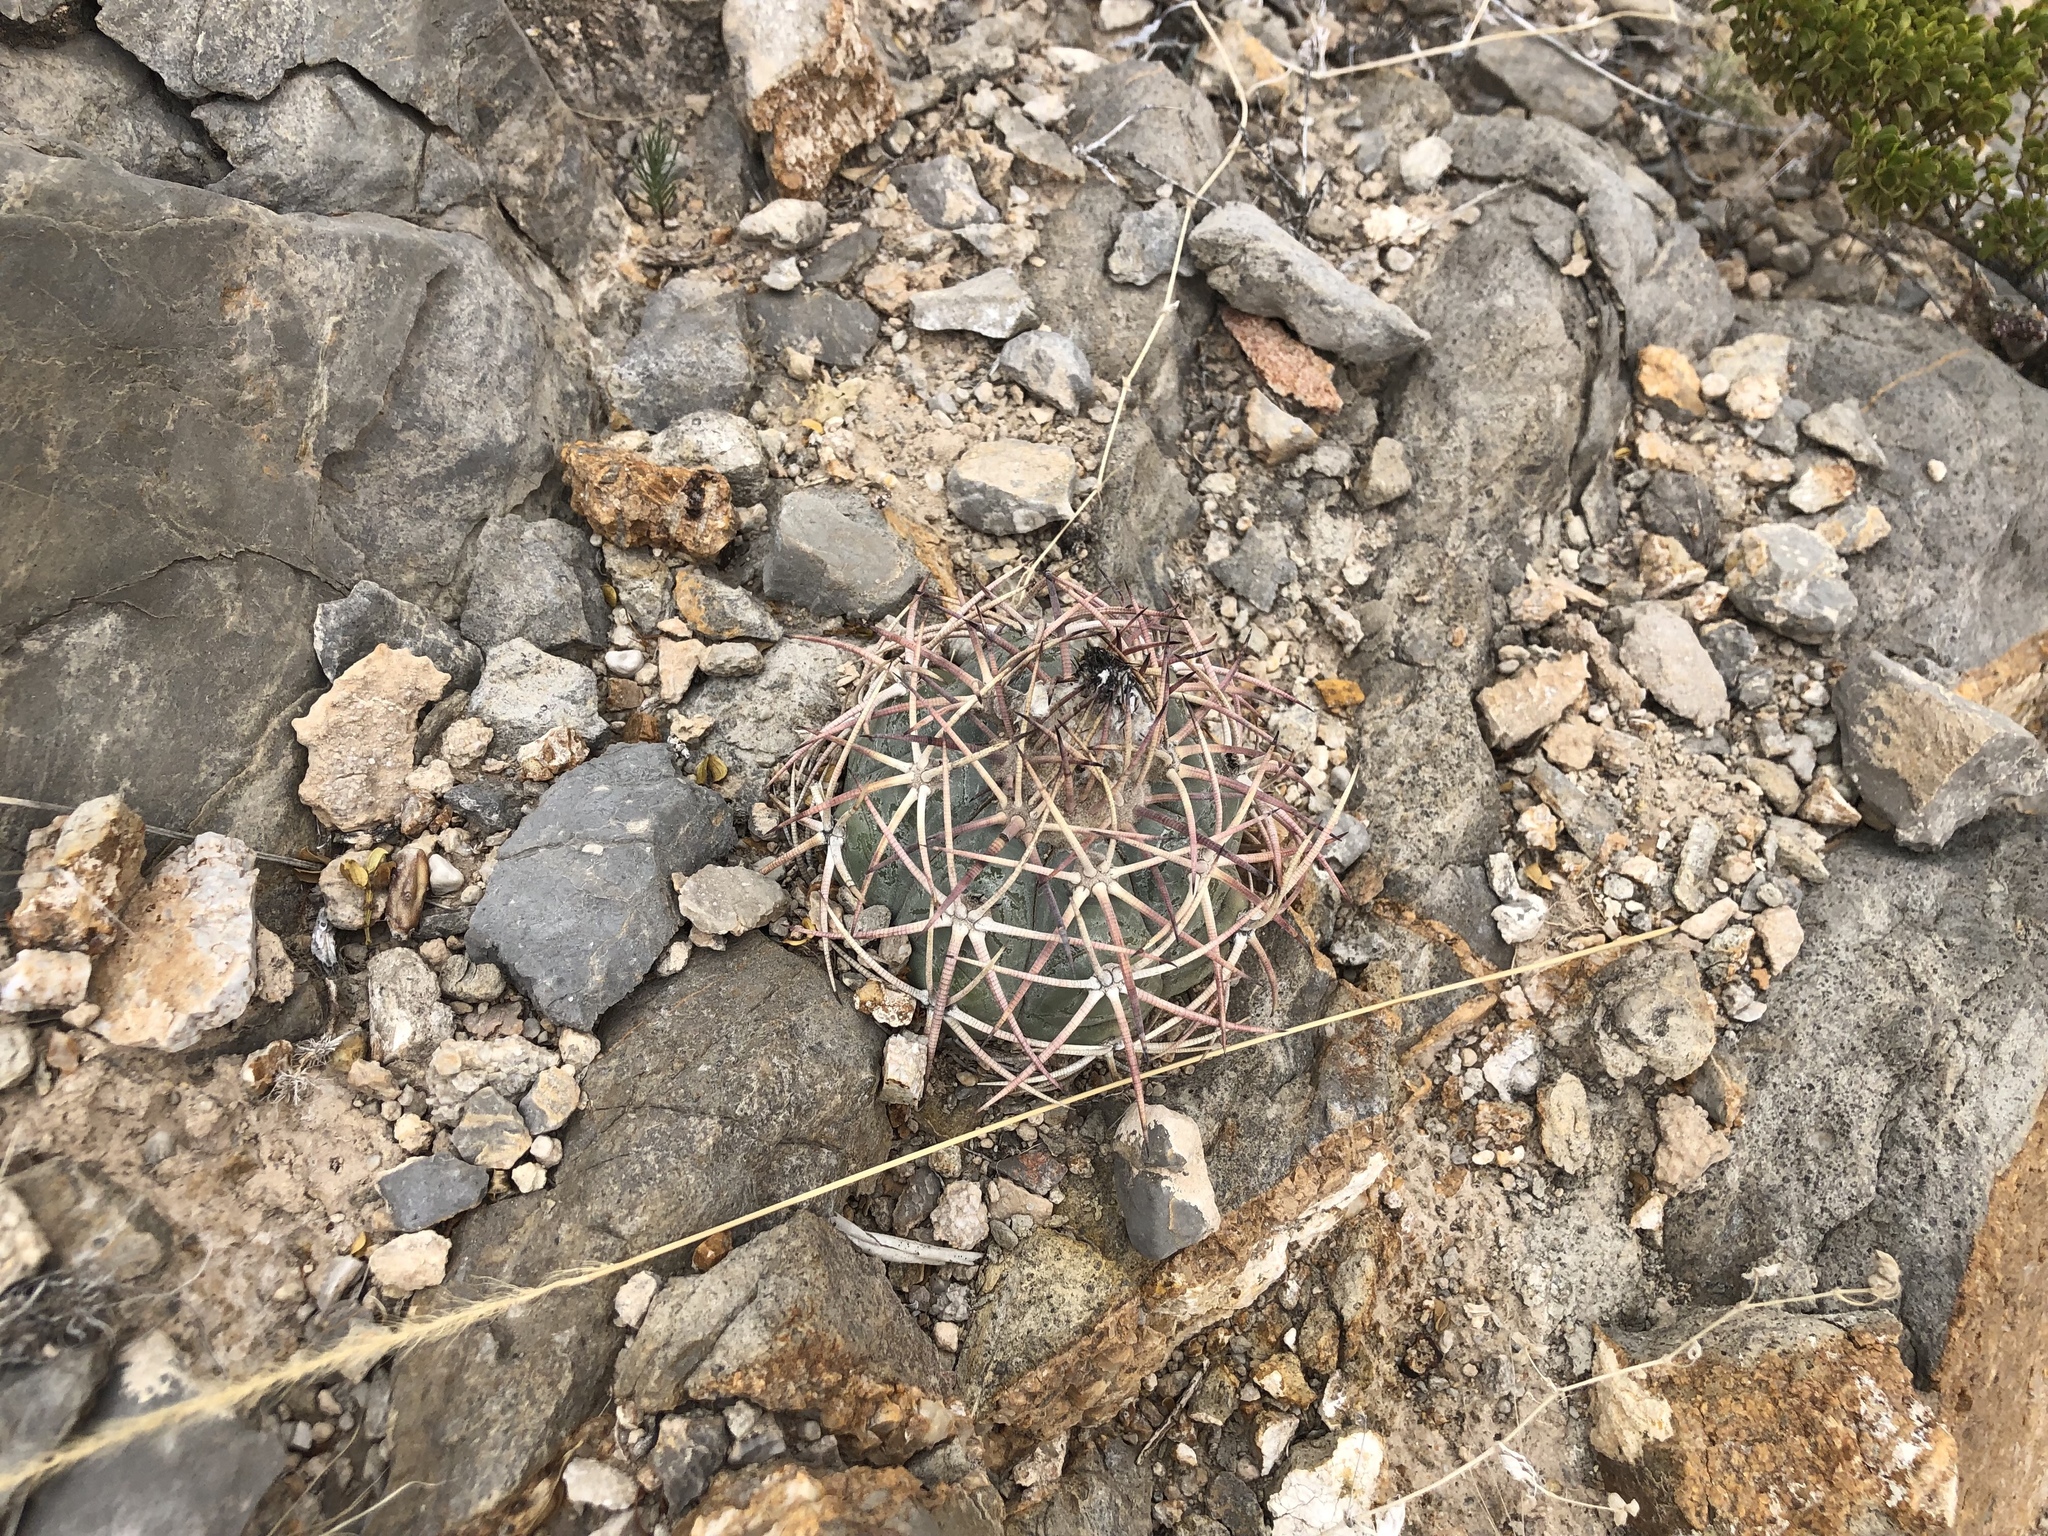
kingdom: Plantae
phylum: Tracheophyta
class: Magnoliopsida
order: Caryophyllales
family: Cactaceae
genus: Echinocactus
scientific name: Echinocactus horizonthalonius
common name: Devilshead
